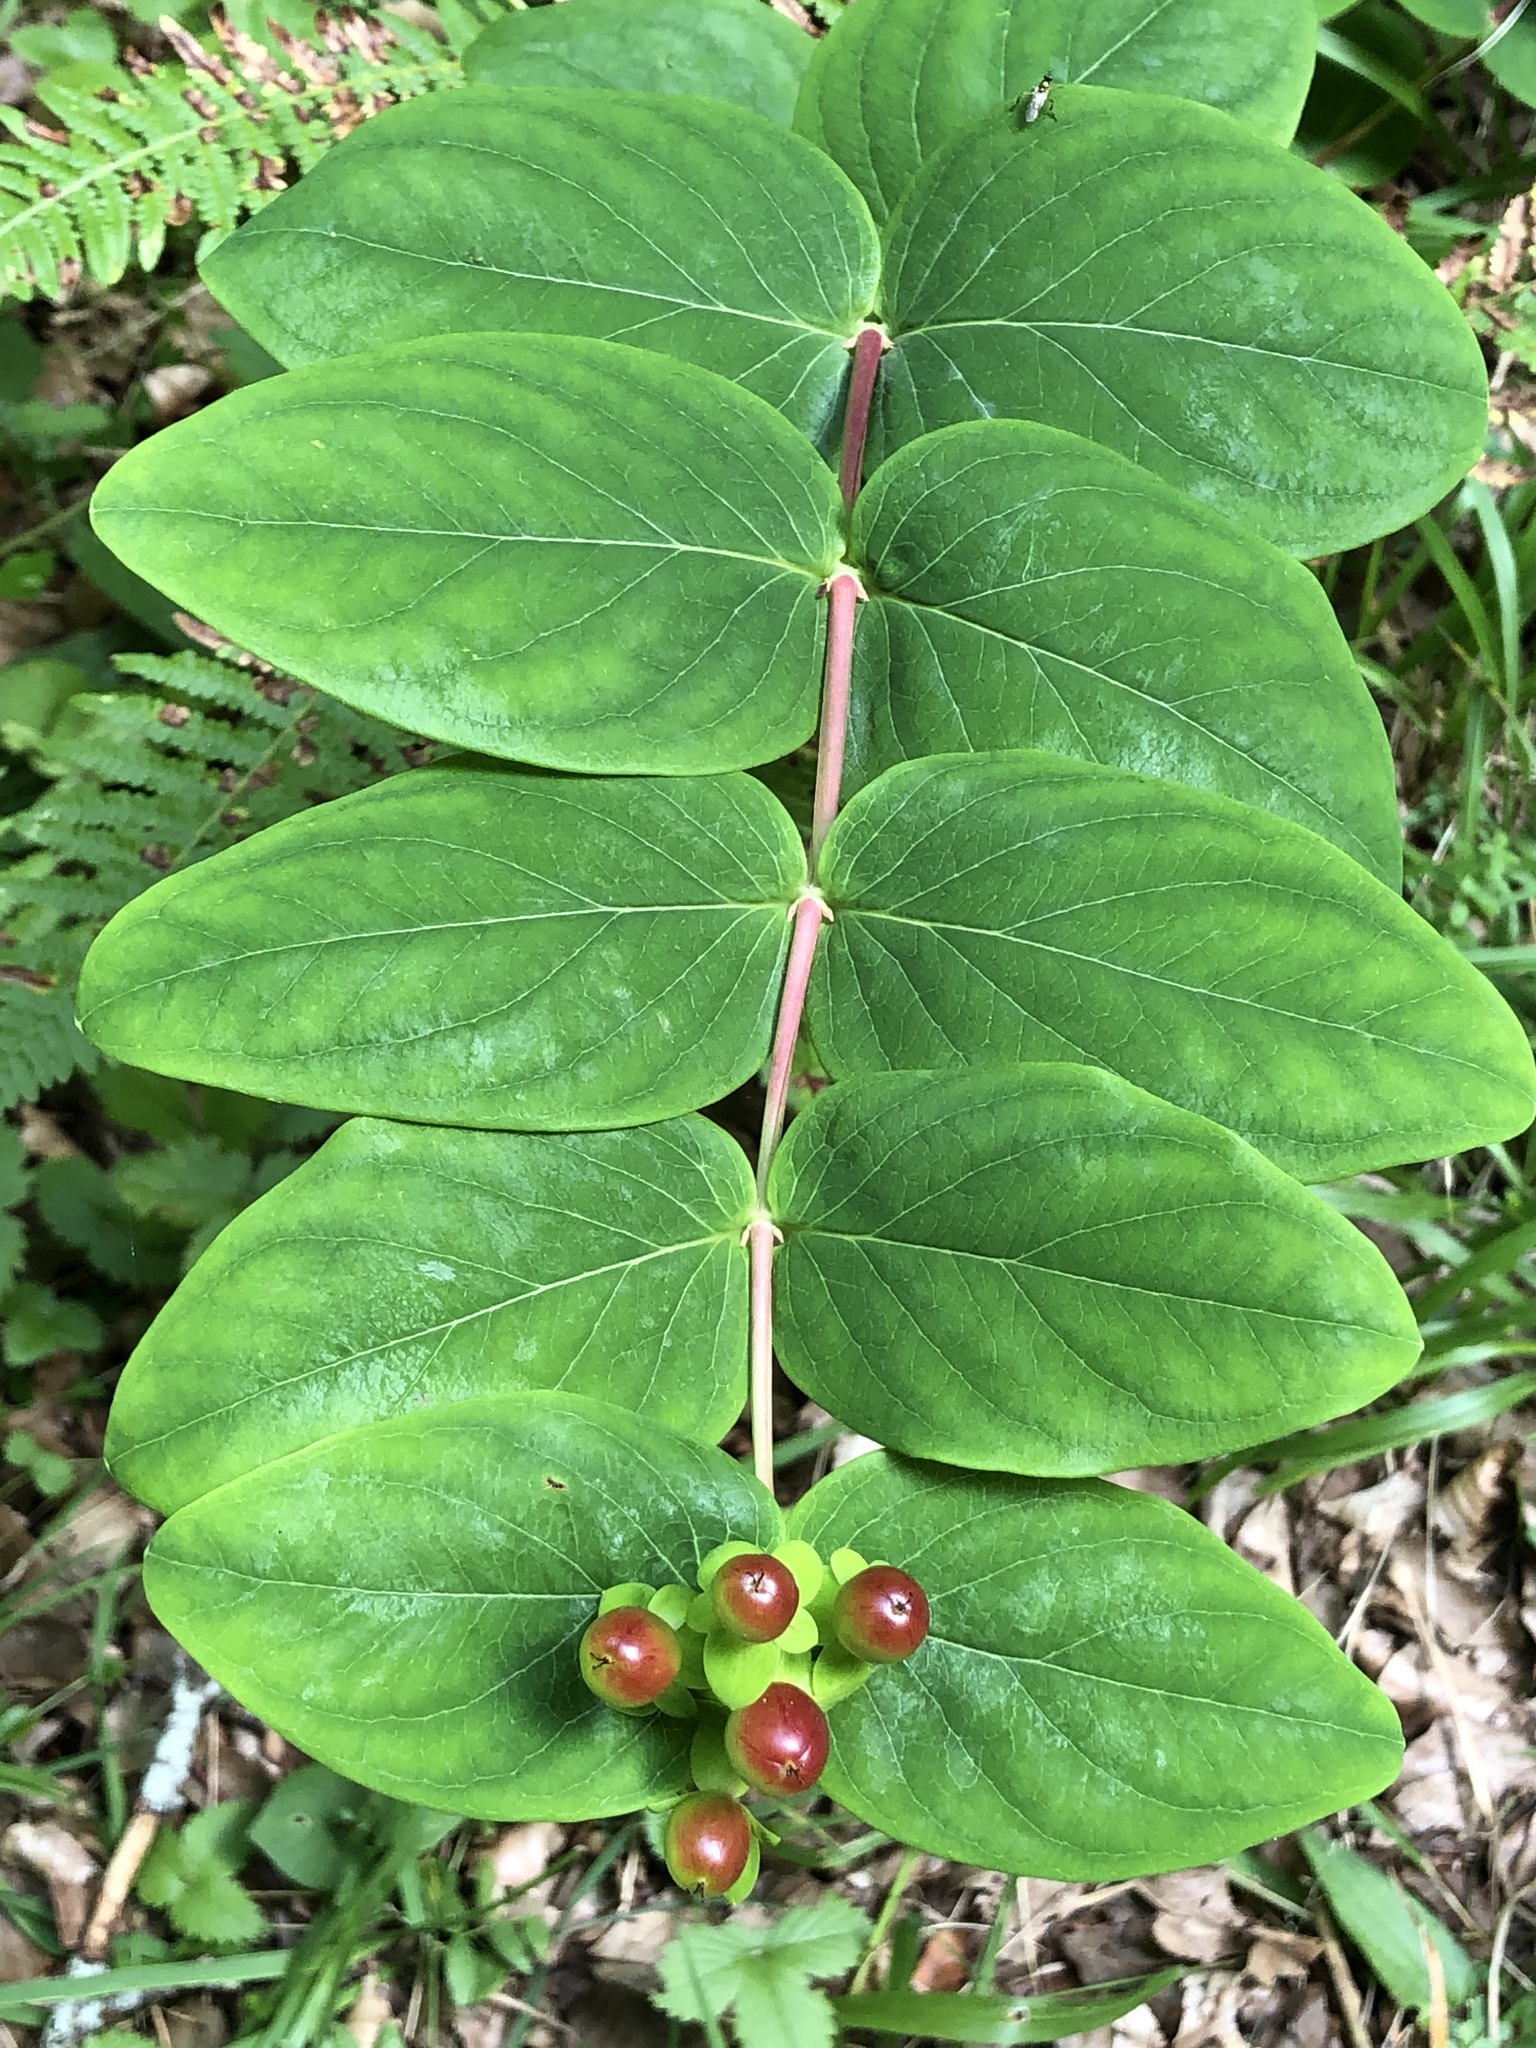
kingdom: Plantae
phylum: Tracheophyta
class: Magnoliopsida
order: Malpighiales
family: Hypericaceae
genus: Hypericum
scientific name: Hypericum androsaemum
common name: Sweet-amber
